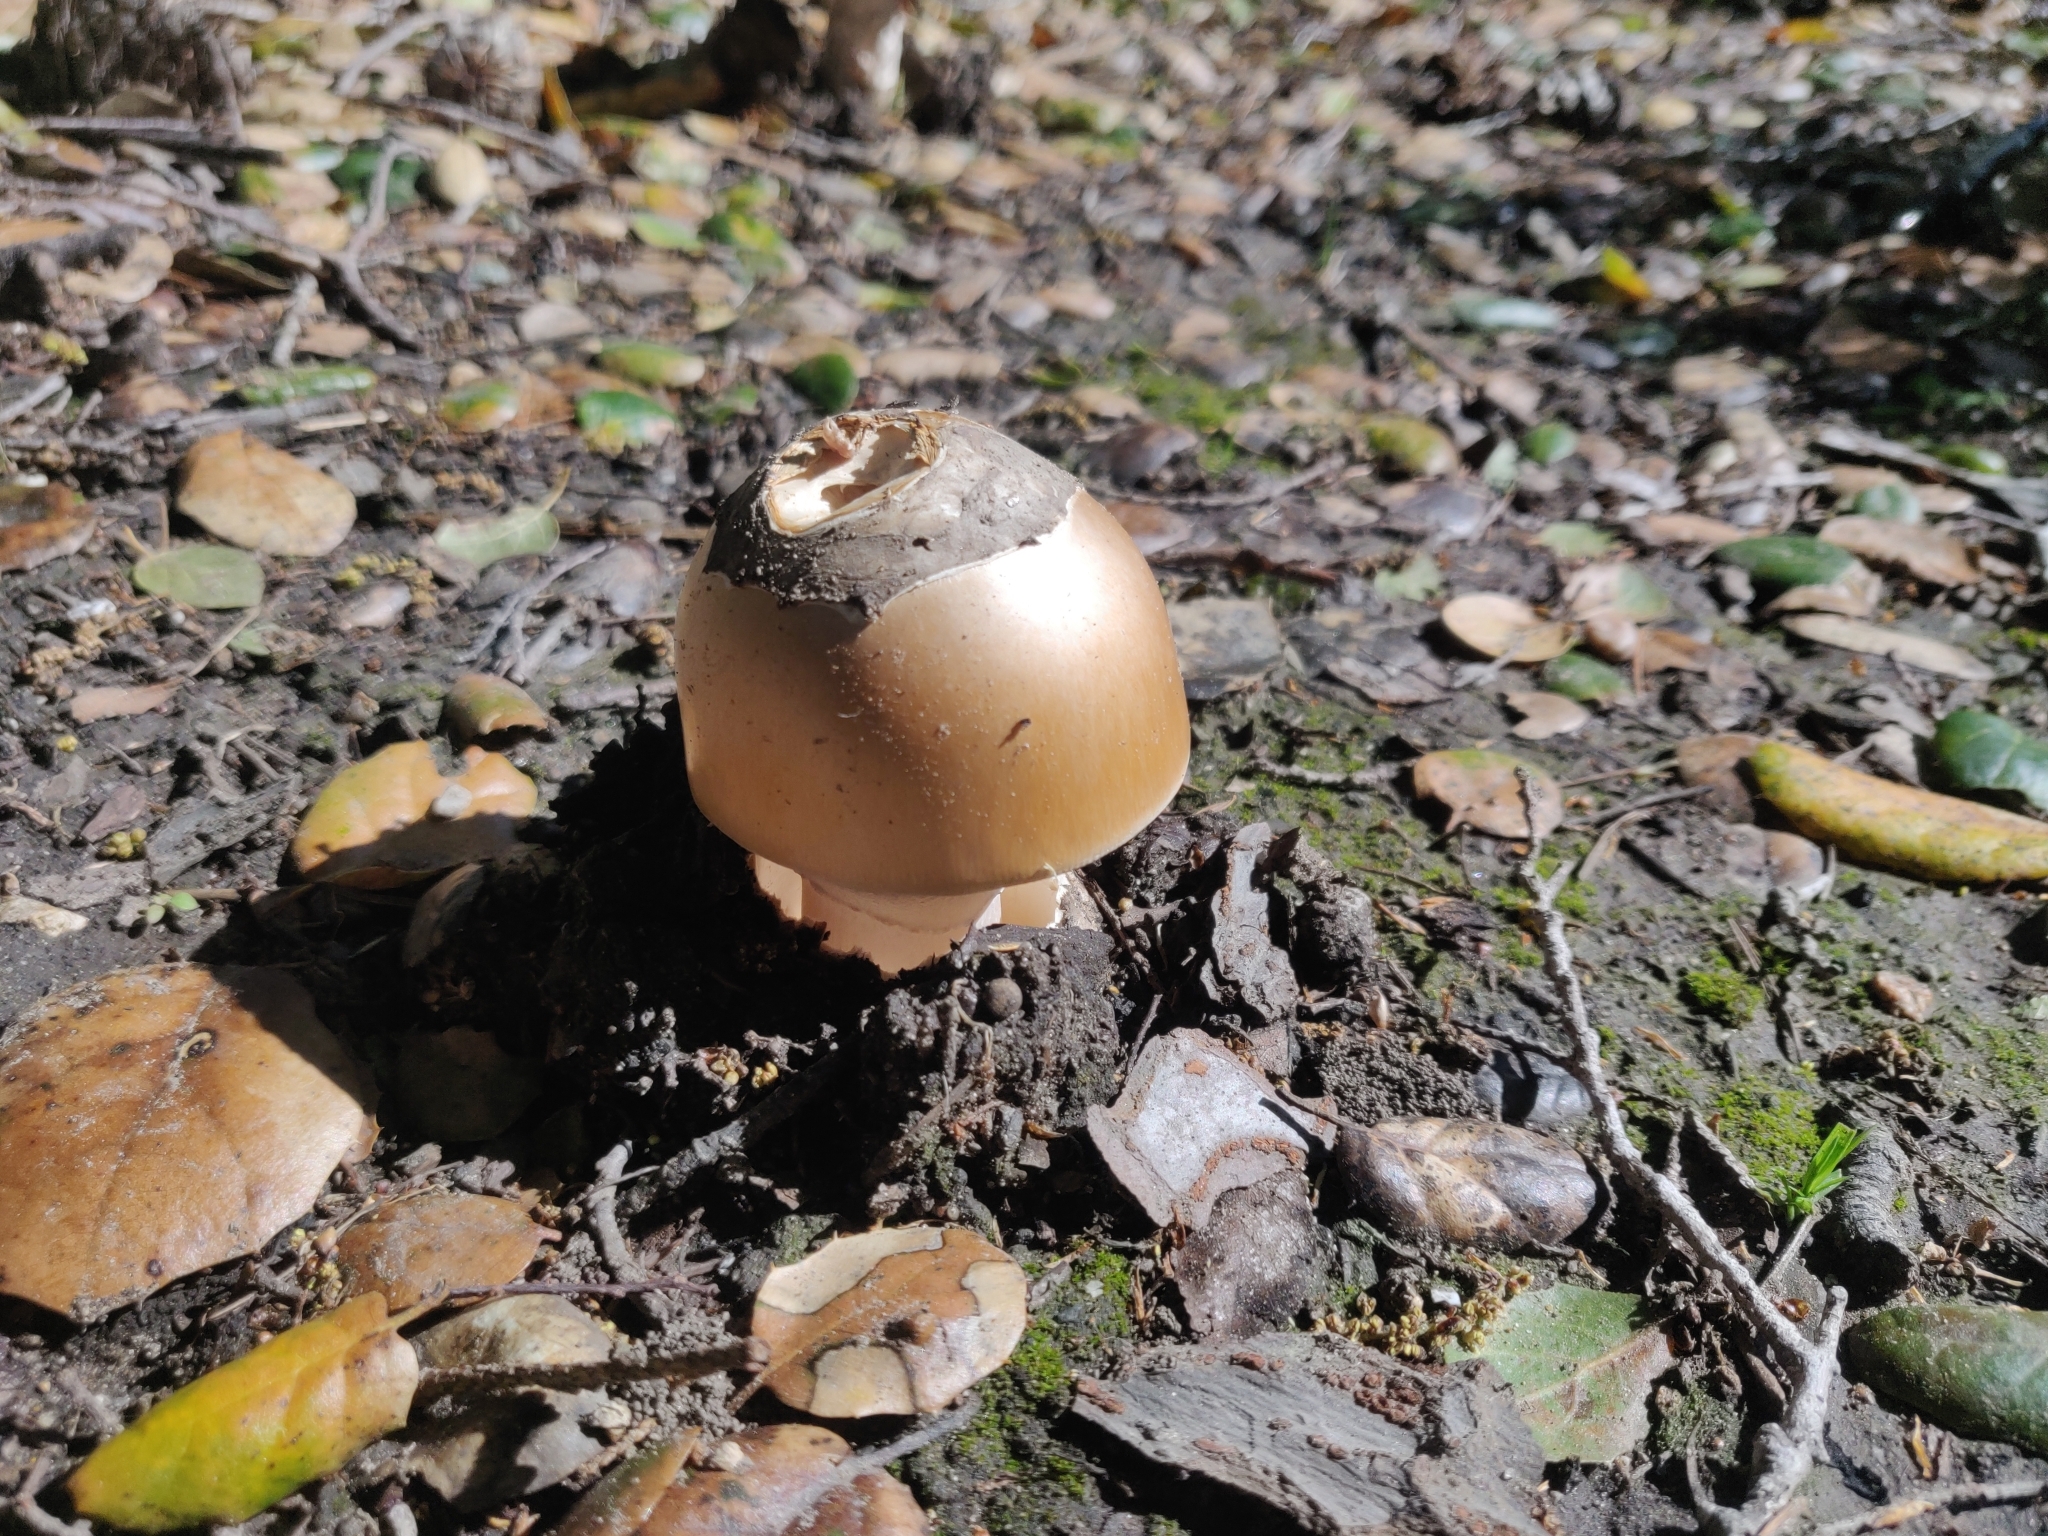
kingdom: Fungi
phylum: Basidiomycota
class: Agaricomycetes
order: Agaricales
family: Amanitaceae
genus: Amanita
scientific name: Amanita velosa
